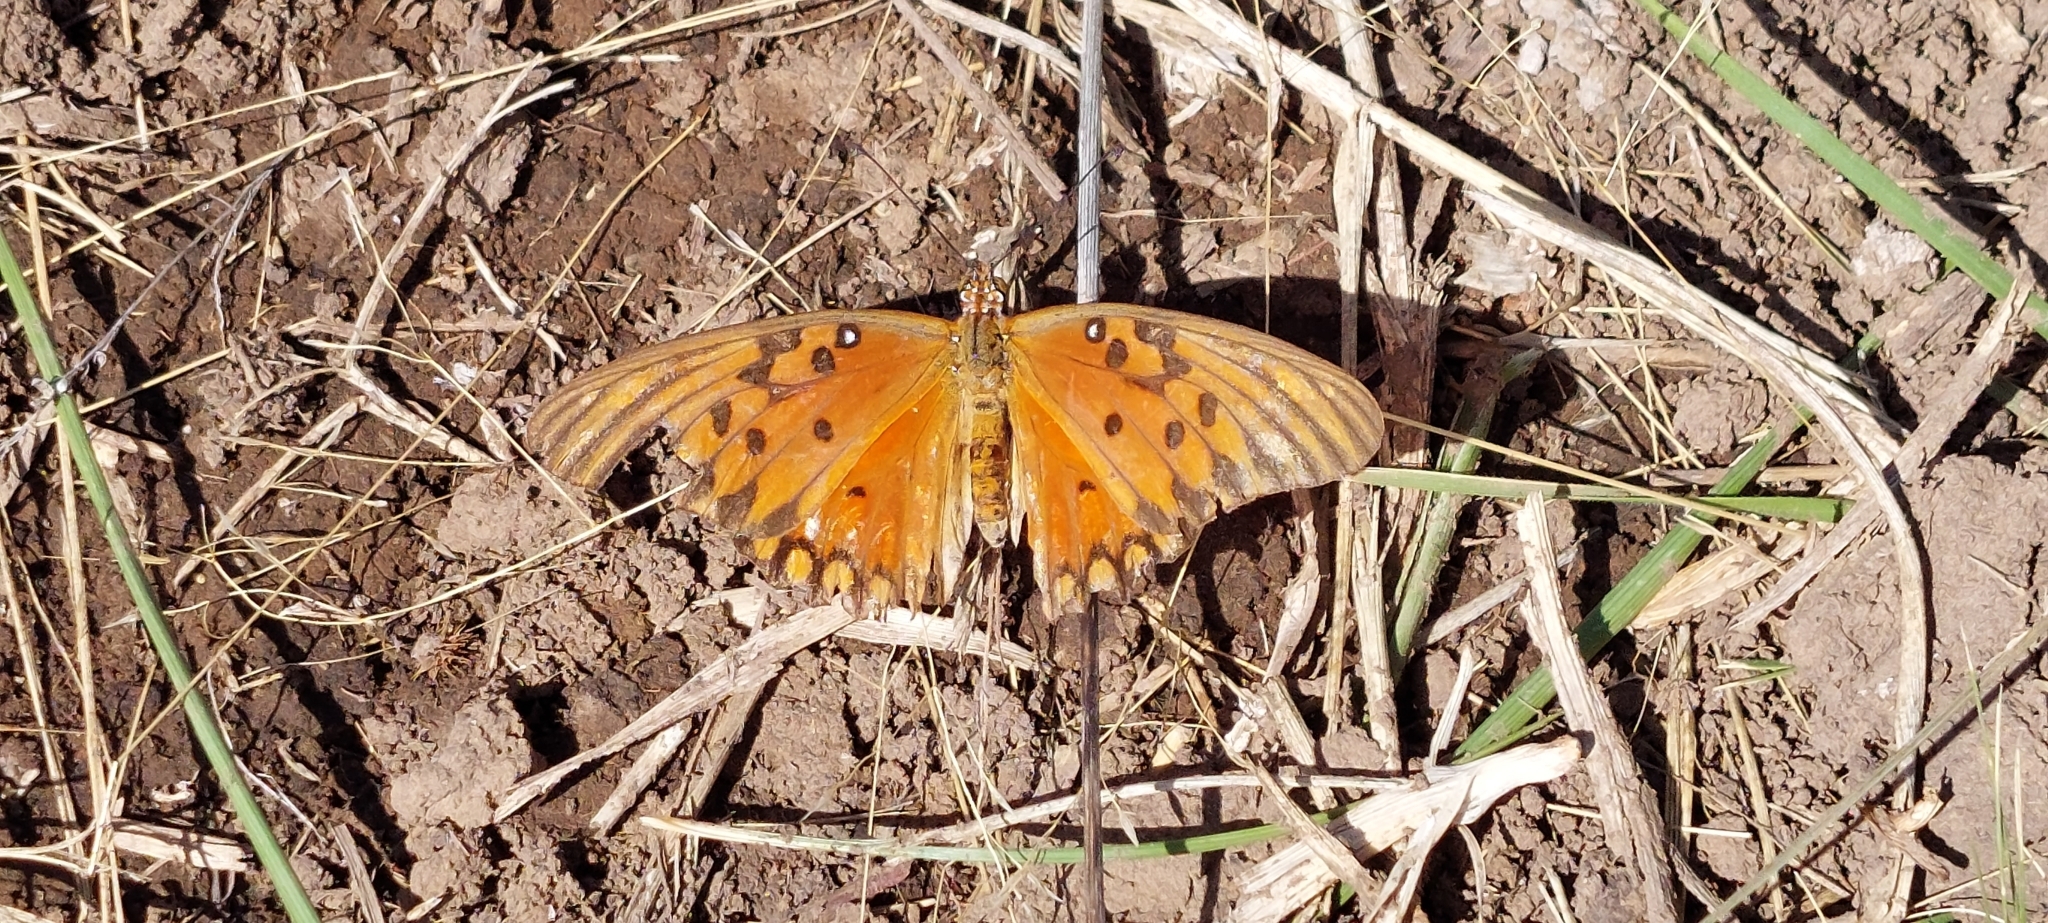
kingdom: Animalia
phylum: Arthropoda
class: Insecta
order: Lepidoptera
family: Nymphalidae
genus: Dione
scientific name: Dione vanillae
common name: Gulf fritillary
